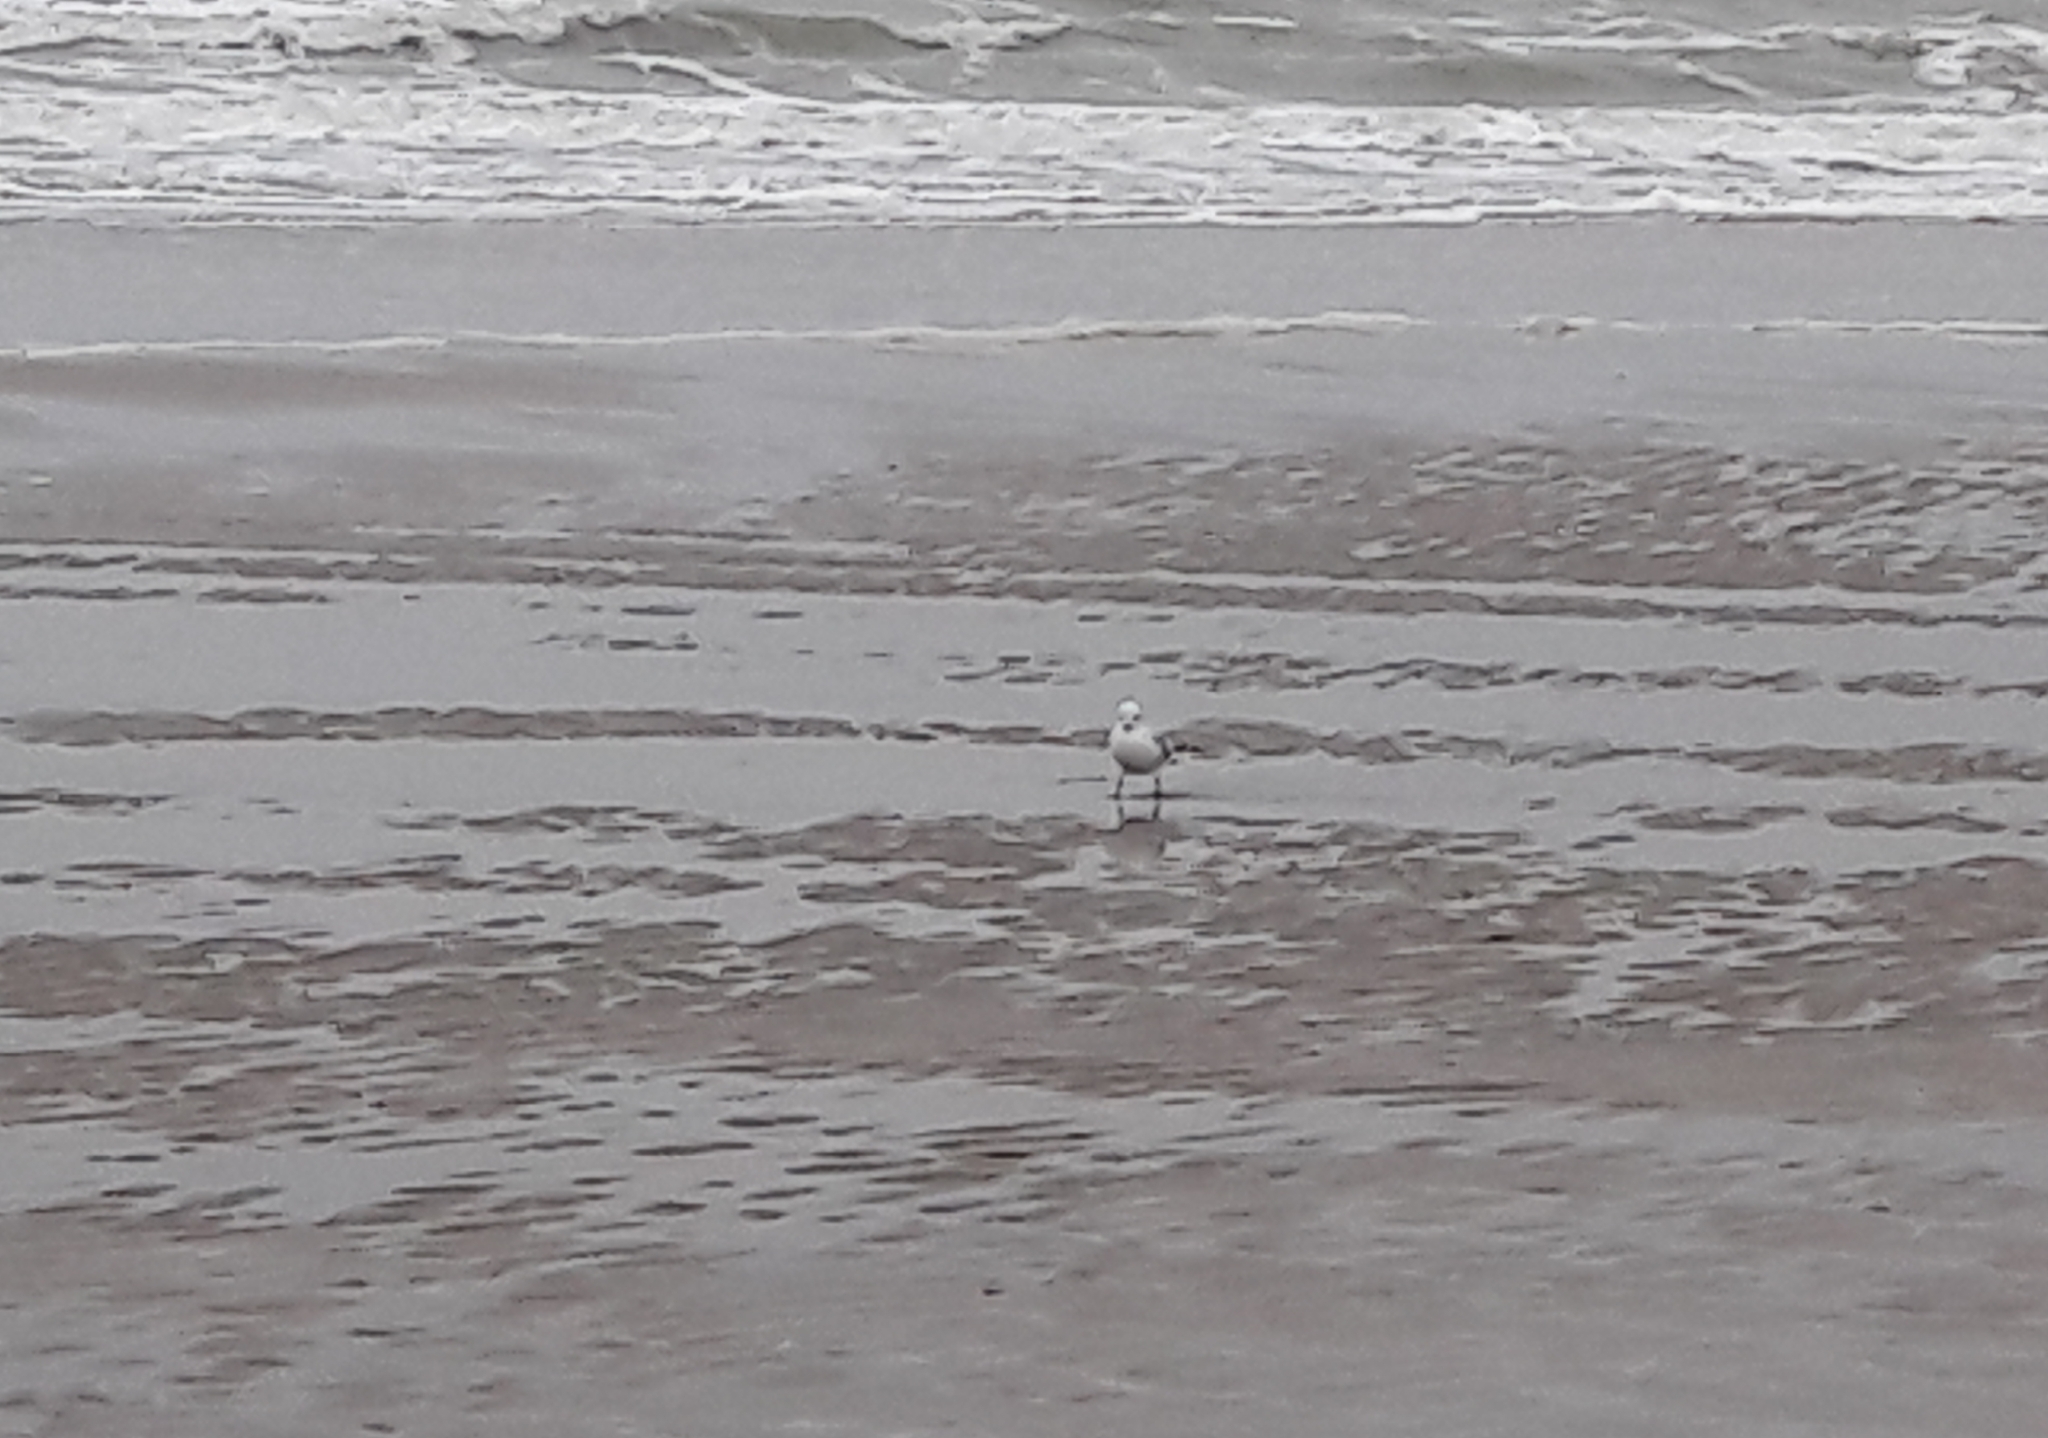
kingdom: Animalia
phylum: Chordata
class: Aves
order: Charadriiformes
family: Laridae
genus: Chroicocephalus
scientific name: Chroicocephalus ridibundus
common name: Black-headed gull
